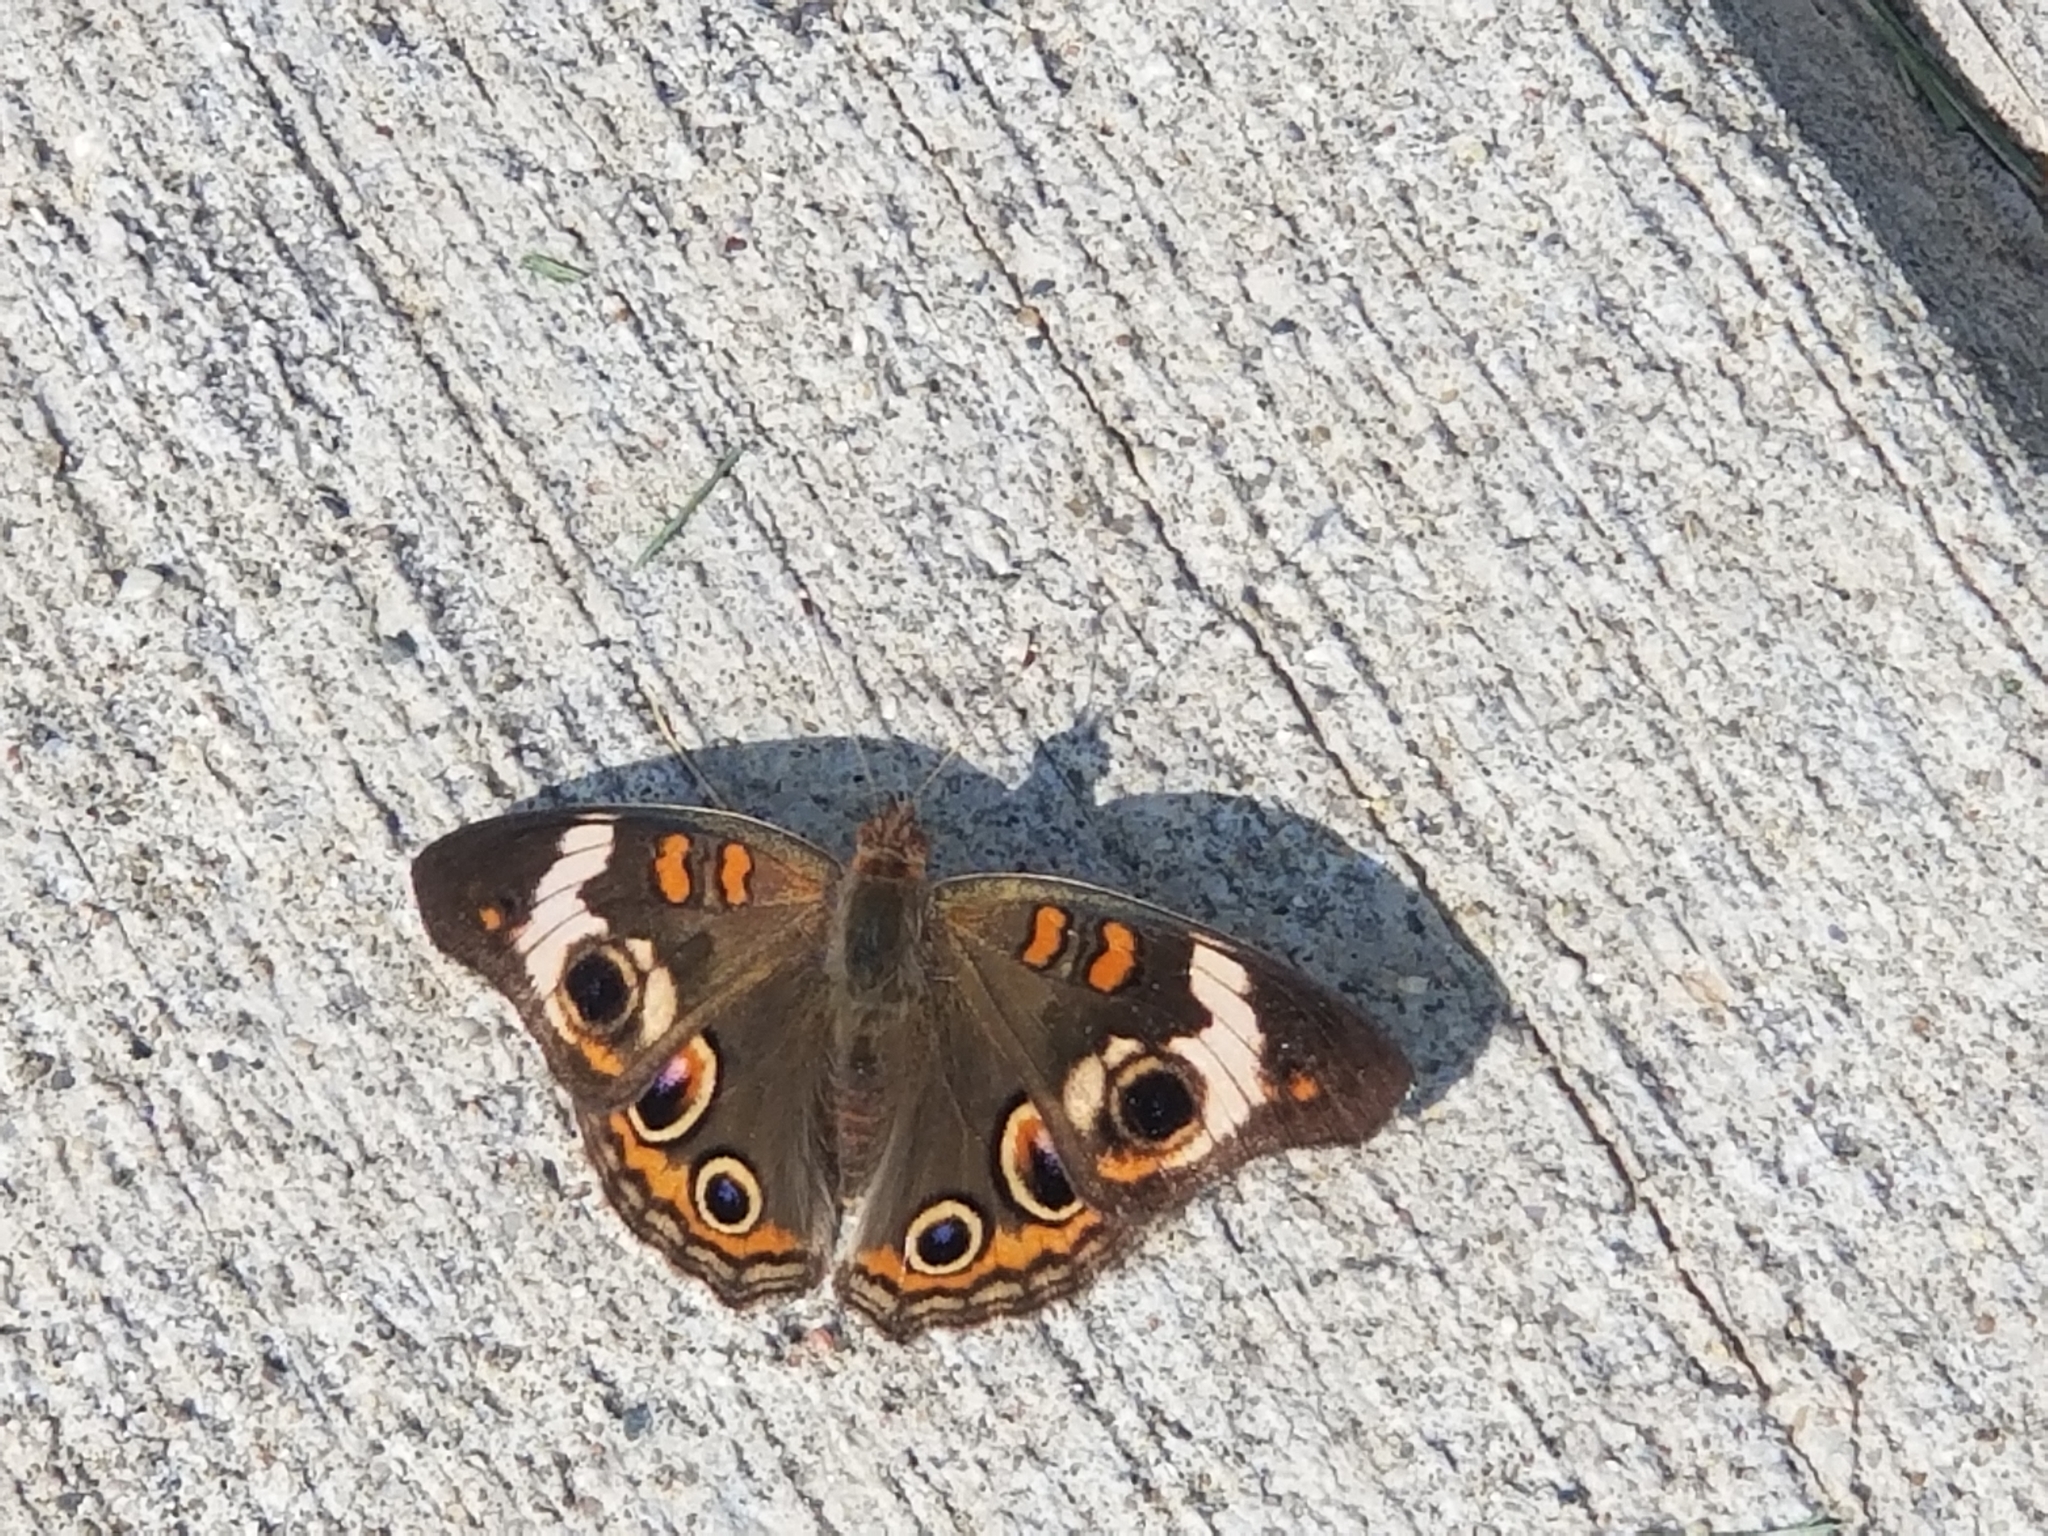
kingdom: Animalia
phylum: Arthropoda
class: Insecta
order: Lepidoptera
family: Nymphalidae
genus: Junonia
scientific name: Junonia coenia
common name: Common buckeye
